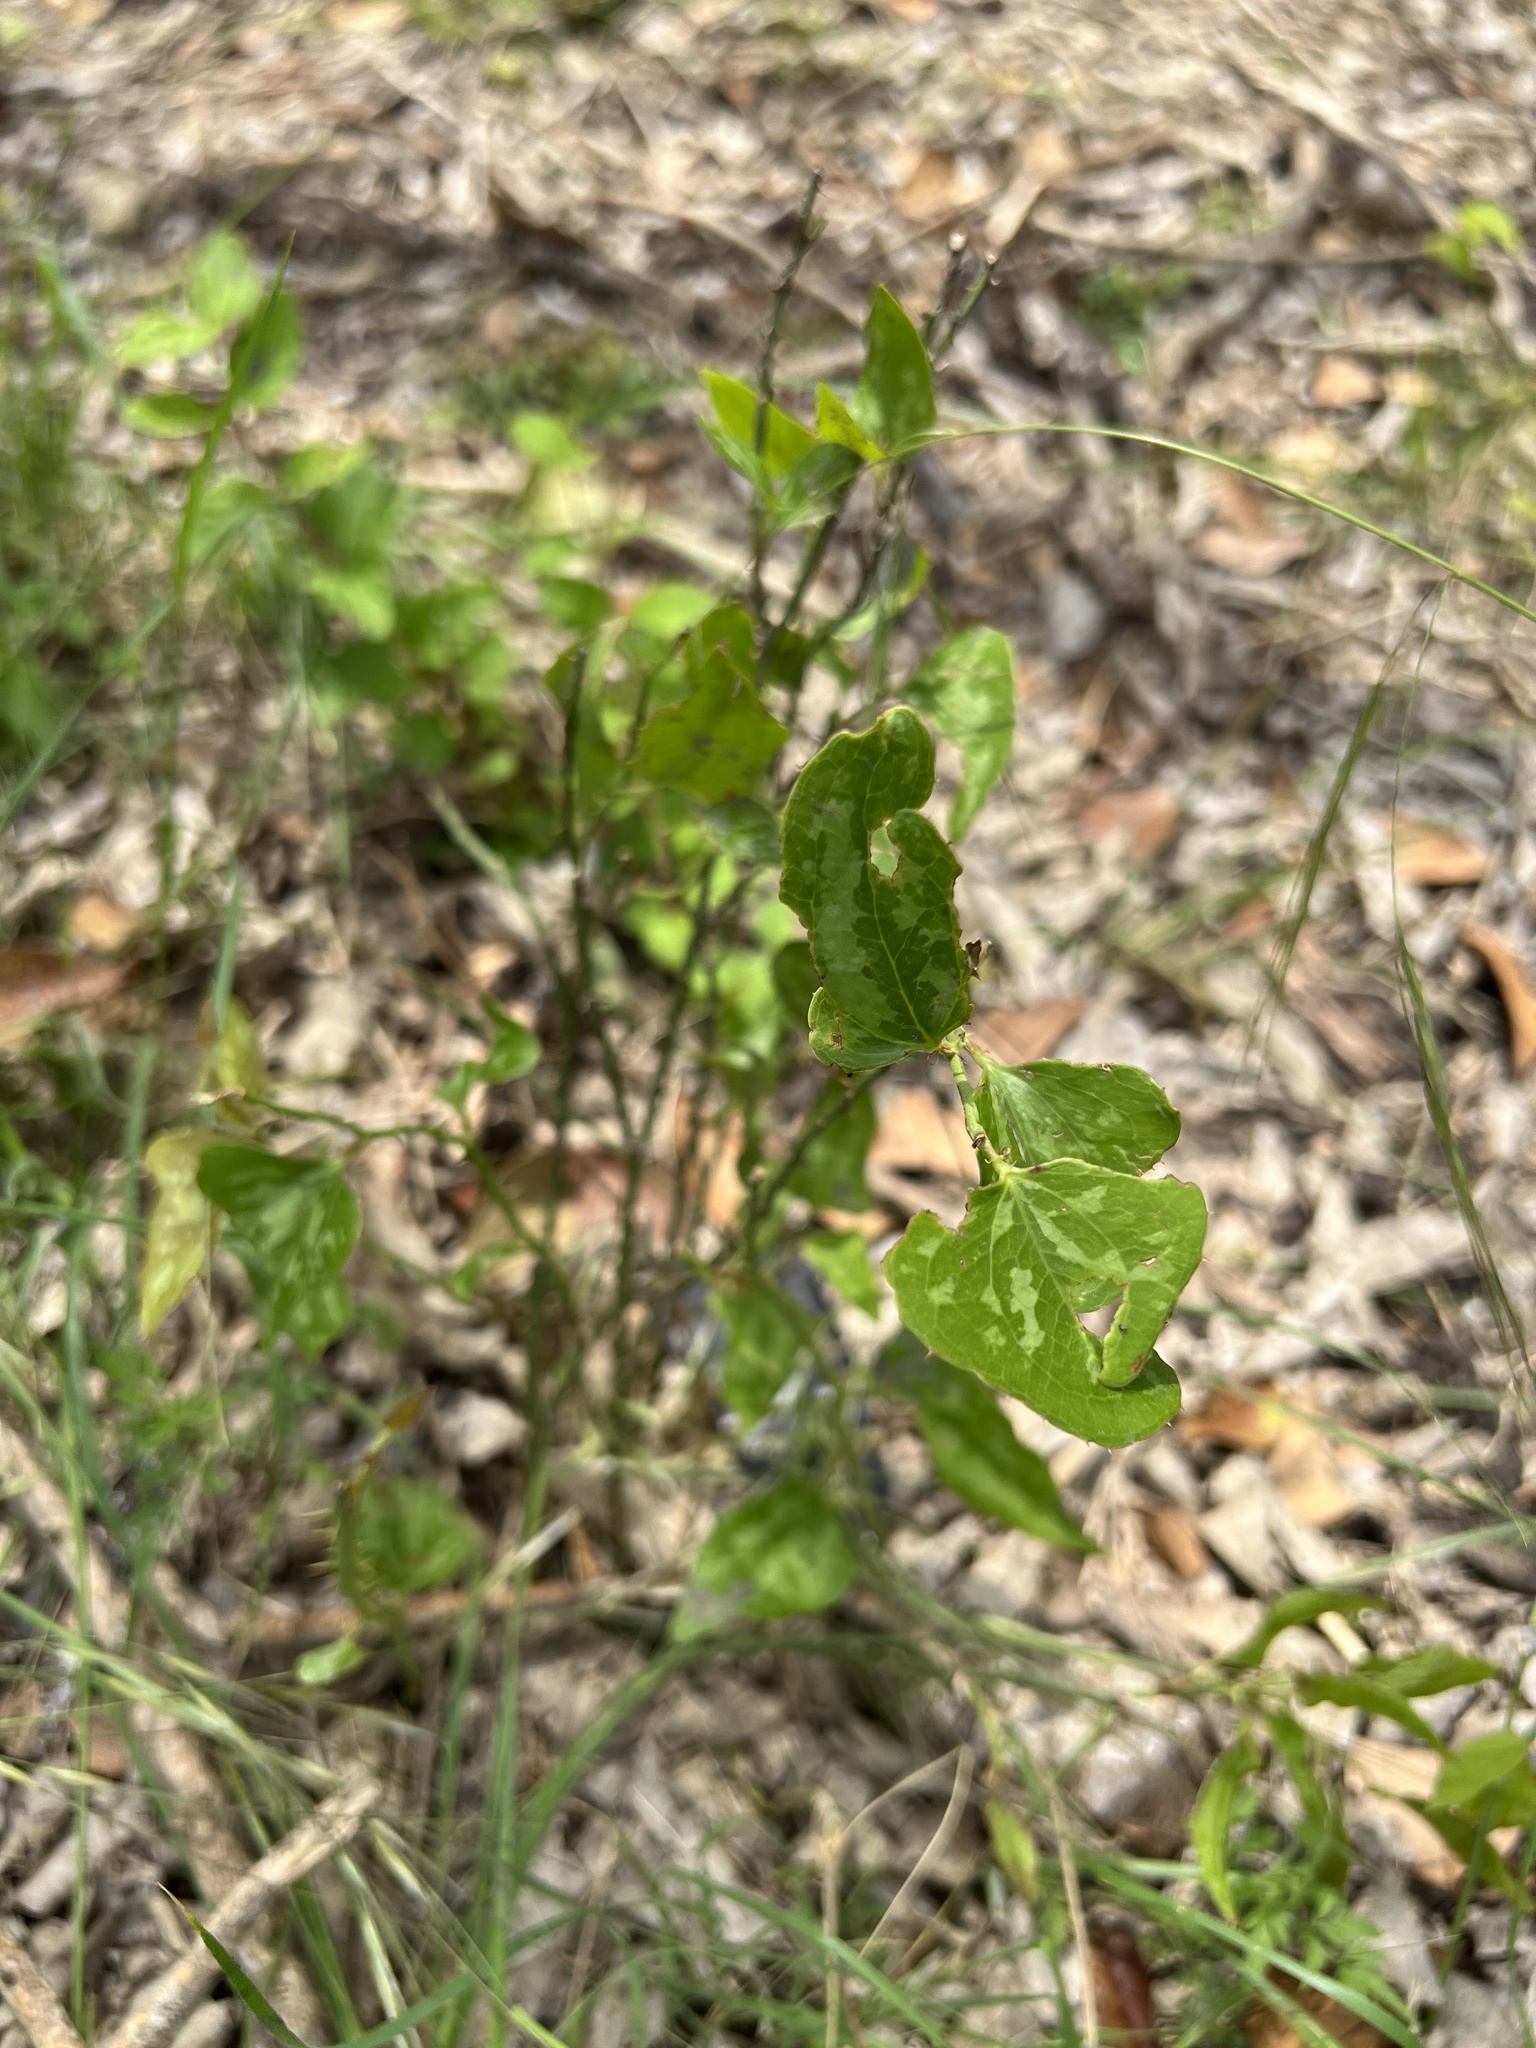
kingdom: Plantae
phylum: Tracheophyta
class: Liliopsida
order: Liliales
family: Smilacaceae
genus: Smilax
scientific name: Smilax bona-nox
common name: Catbrier
